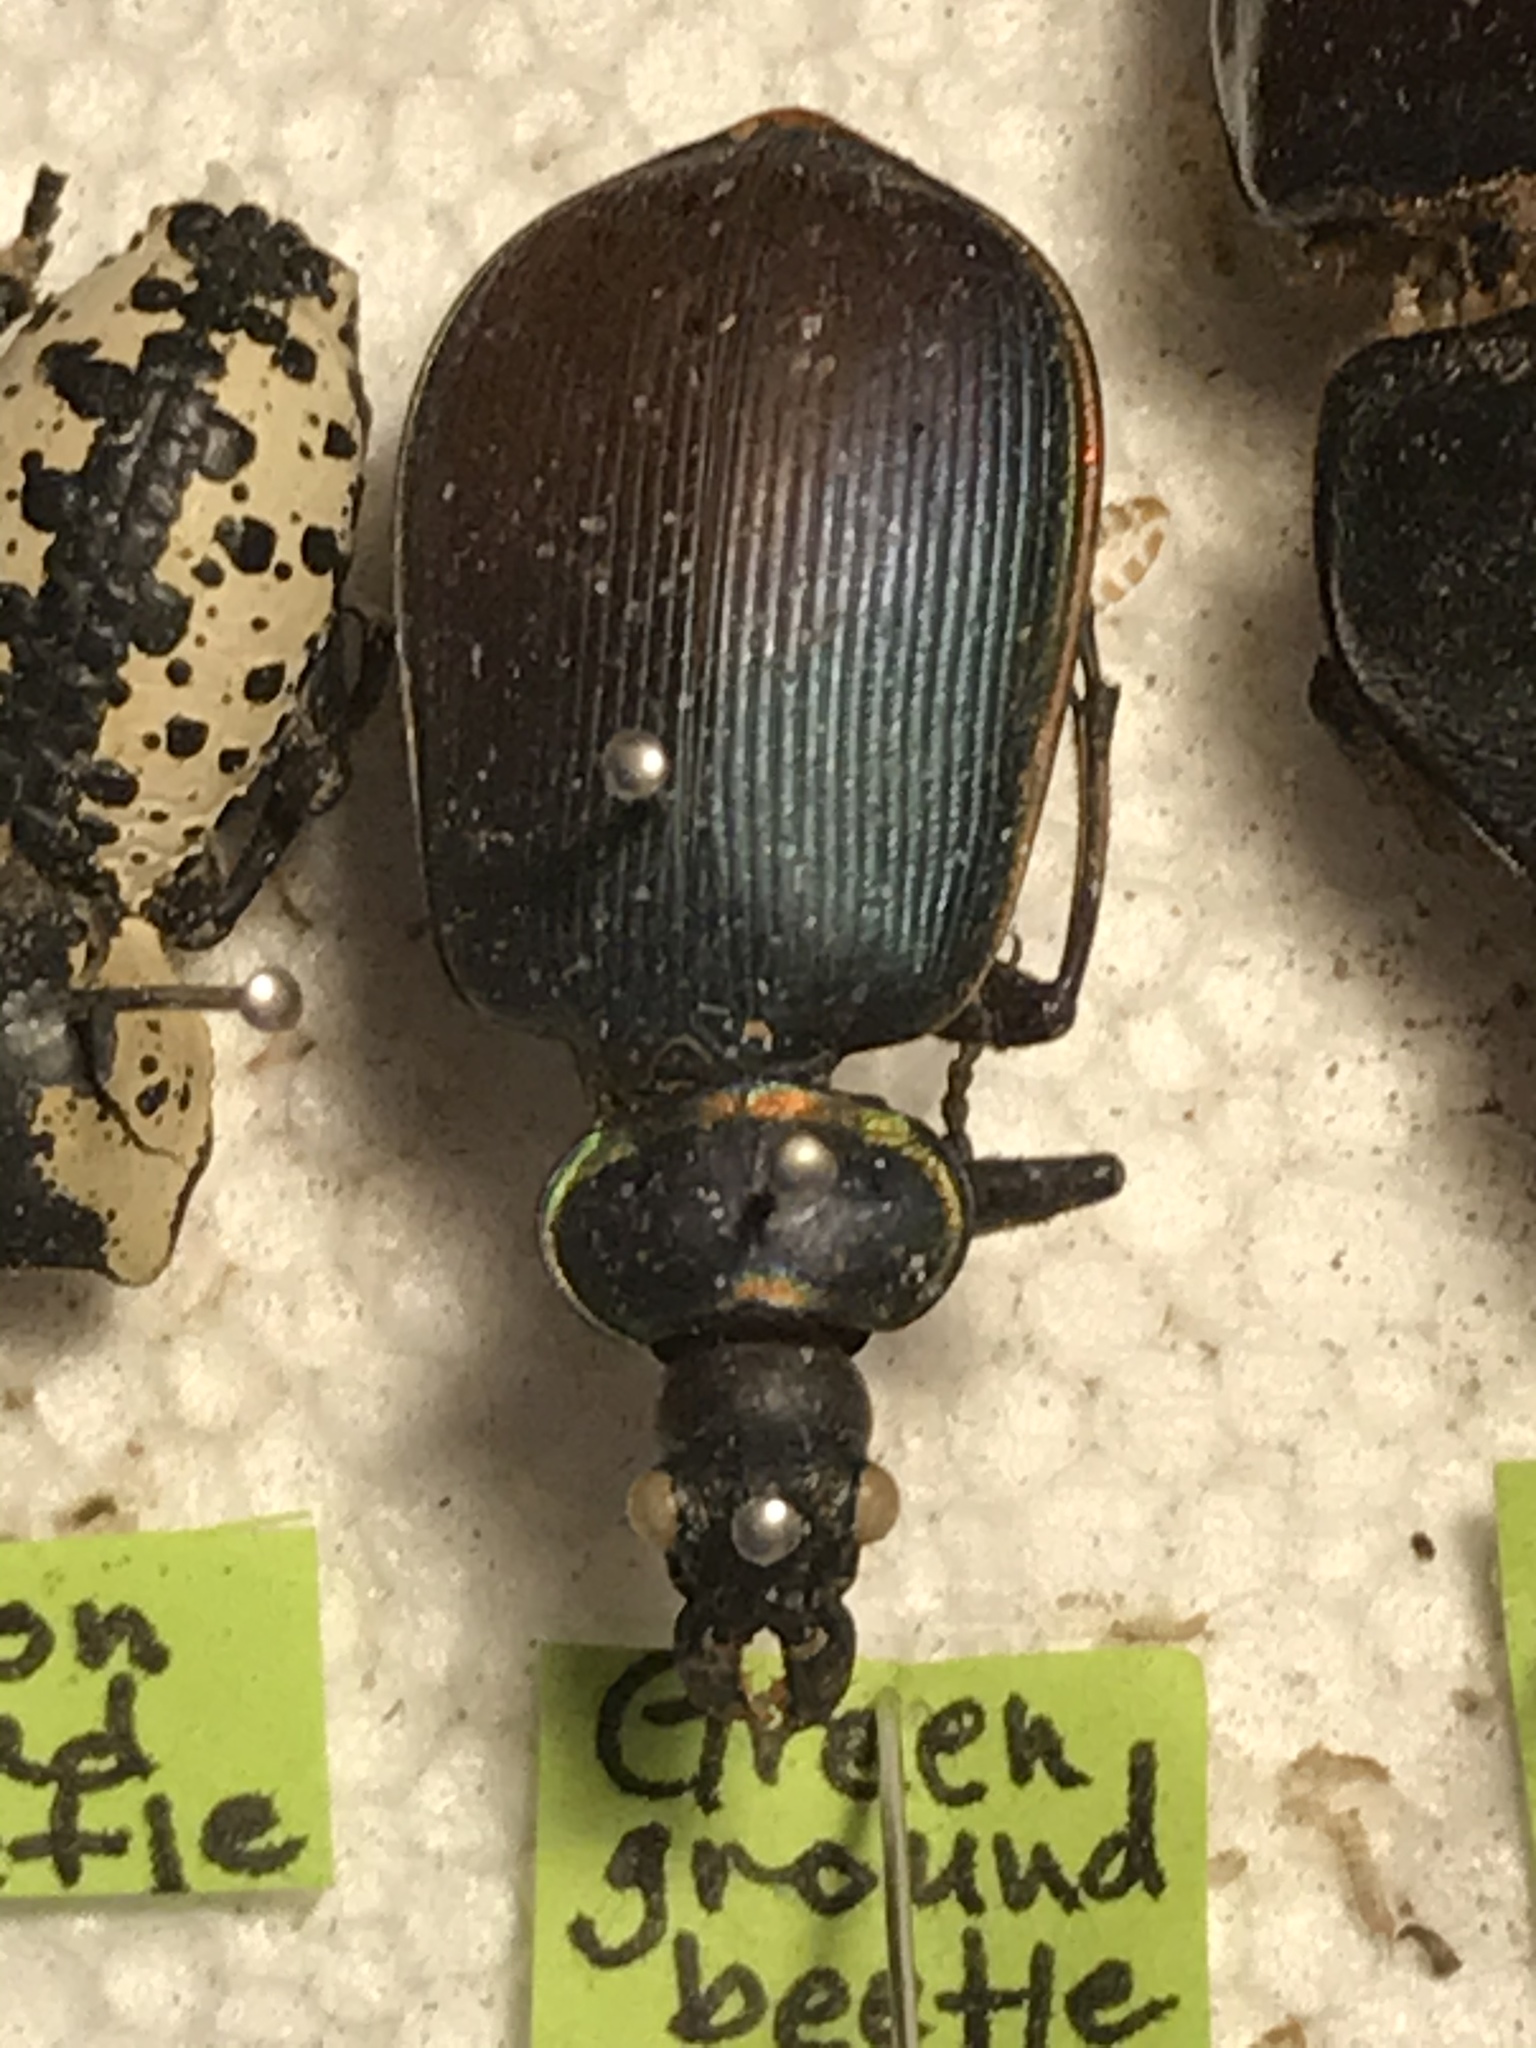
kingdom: Animalia
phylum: Arthropoda
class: Insecta
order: Coleoptera
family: Carabidae
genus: Calosoma
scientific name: Calosoma scrutator
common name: Fiery searcher beetle
